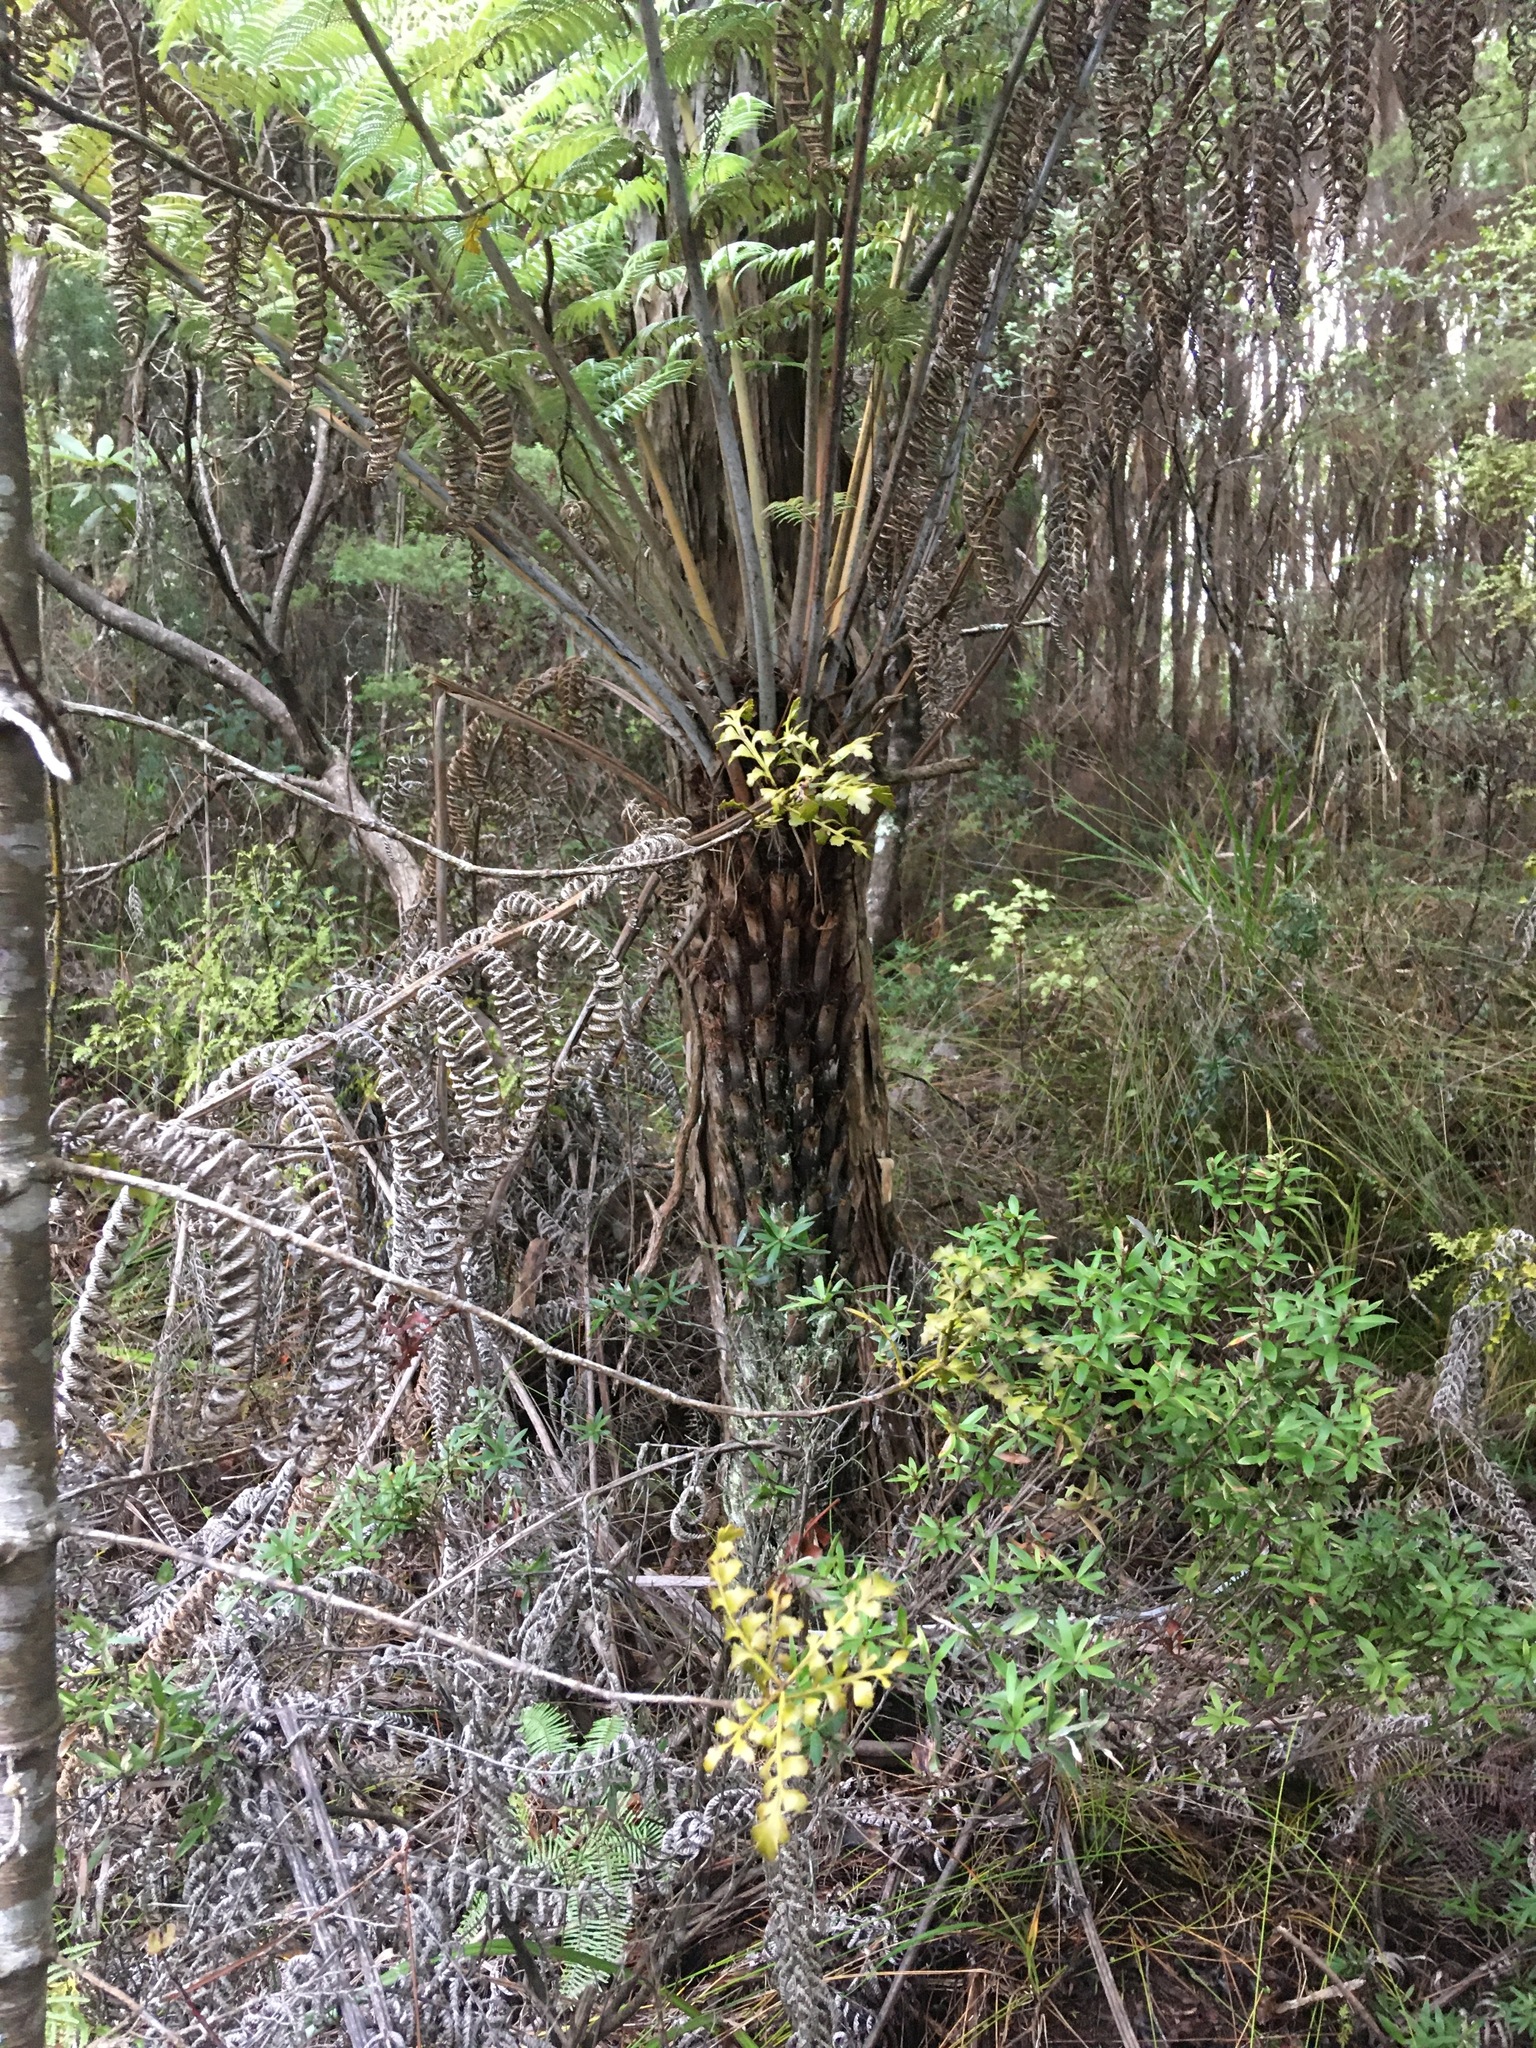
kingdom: Plantae
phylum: Tracheophyta
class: Polypodiopsida
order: Cyatheales
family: Cyatheaceae
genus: Alsophila
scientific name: Alsophila dealbata
